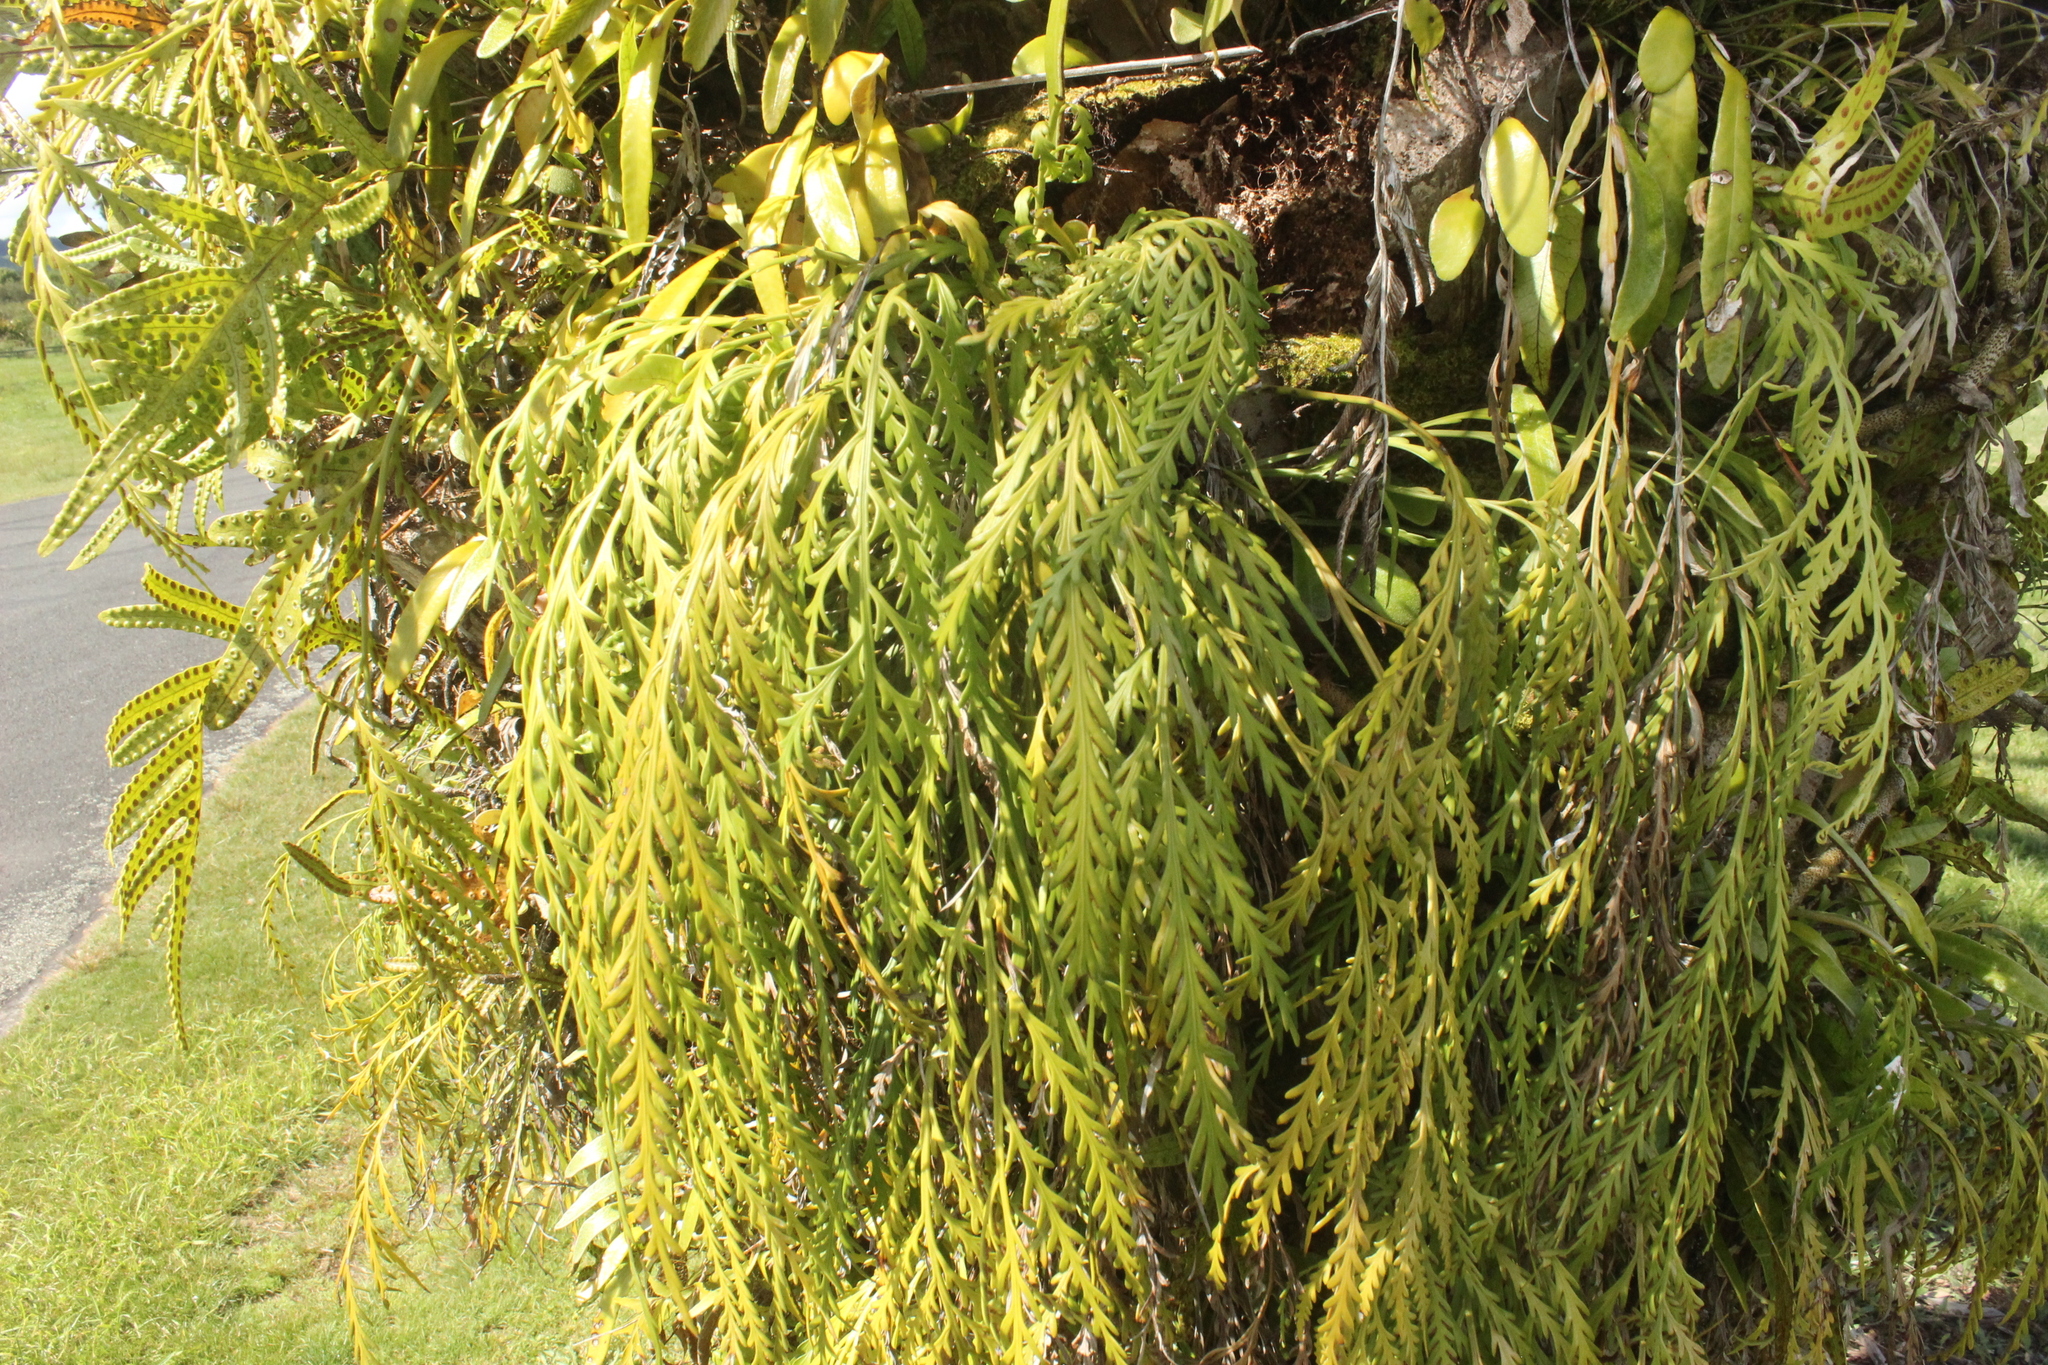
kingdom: Plantae
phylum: Tracheophyta
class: Polypodiopsida
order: Polypodiales
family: Aspleniaceae
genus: Asplenium
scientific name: Asplenium flaccidum
